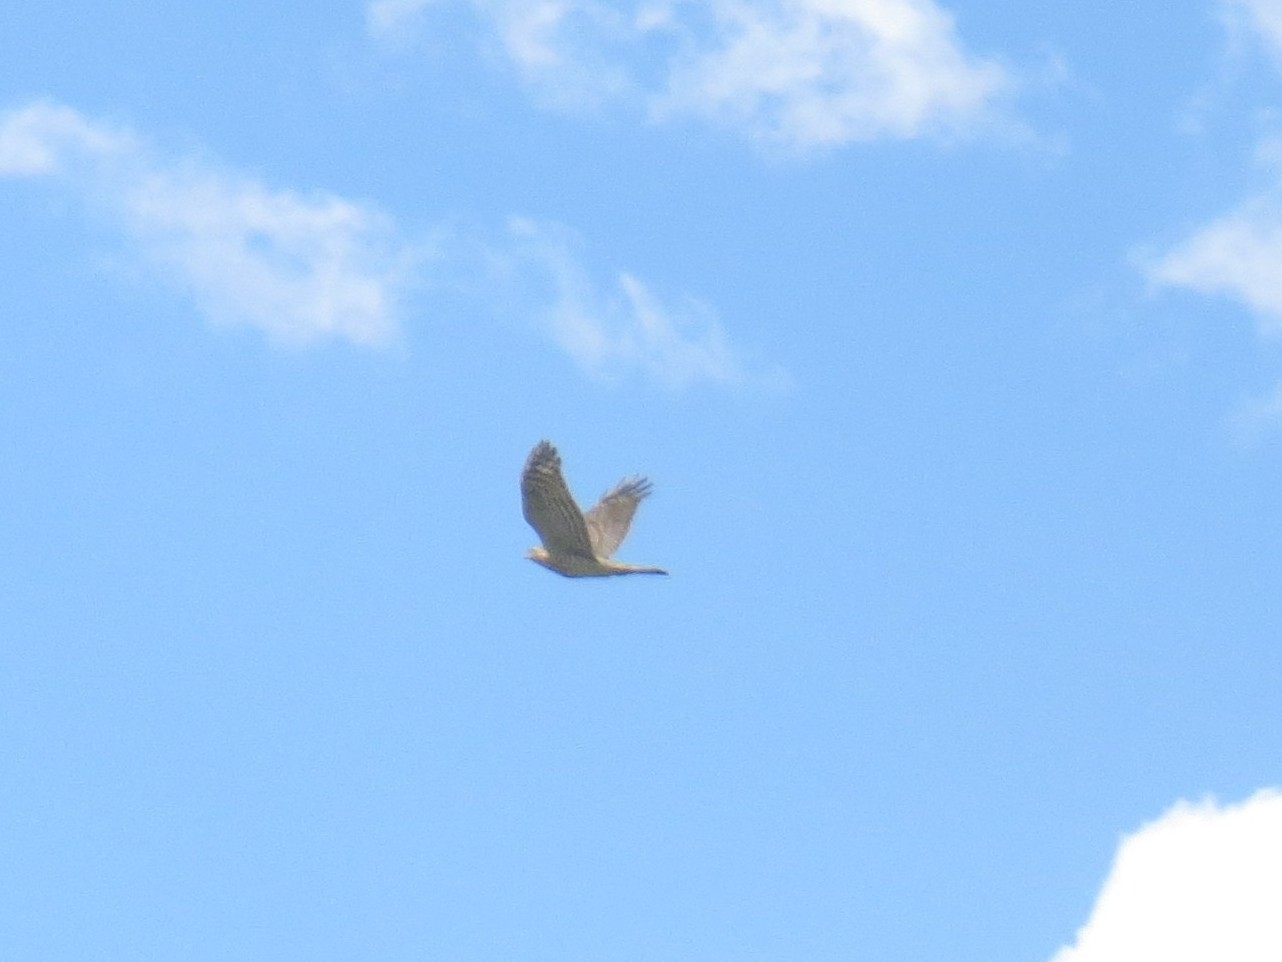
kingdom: Animalia
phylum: Chordata
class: Aves
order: Accipitriformes
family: Accipitridae
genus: Accipiter
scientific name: Accipiter nisus
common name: Eurasian sparrowhawk
